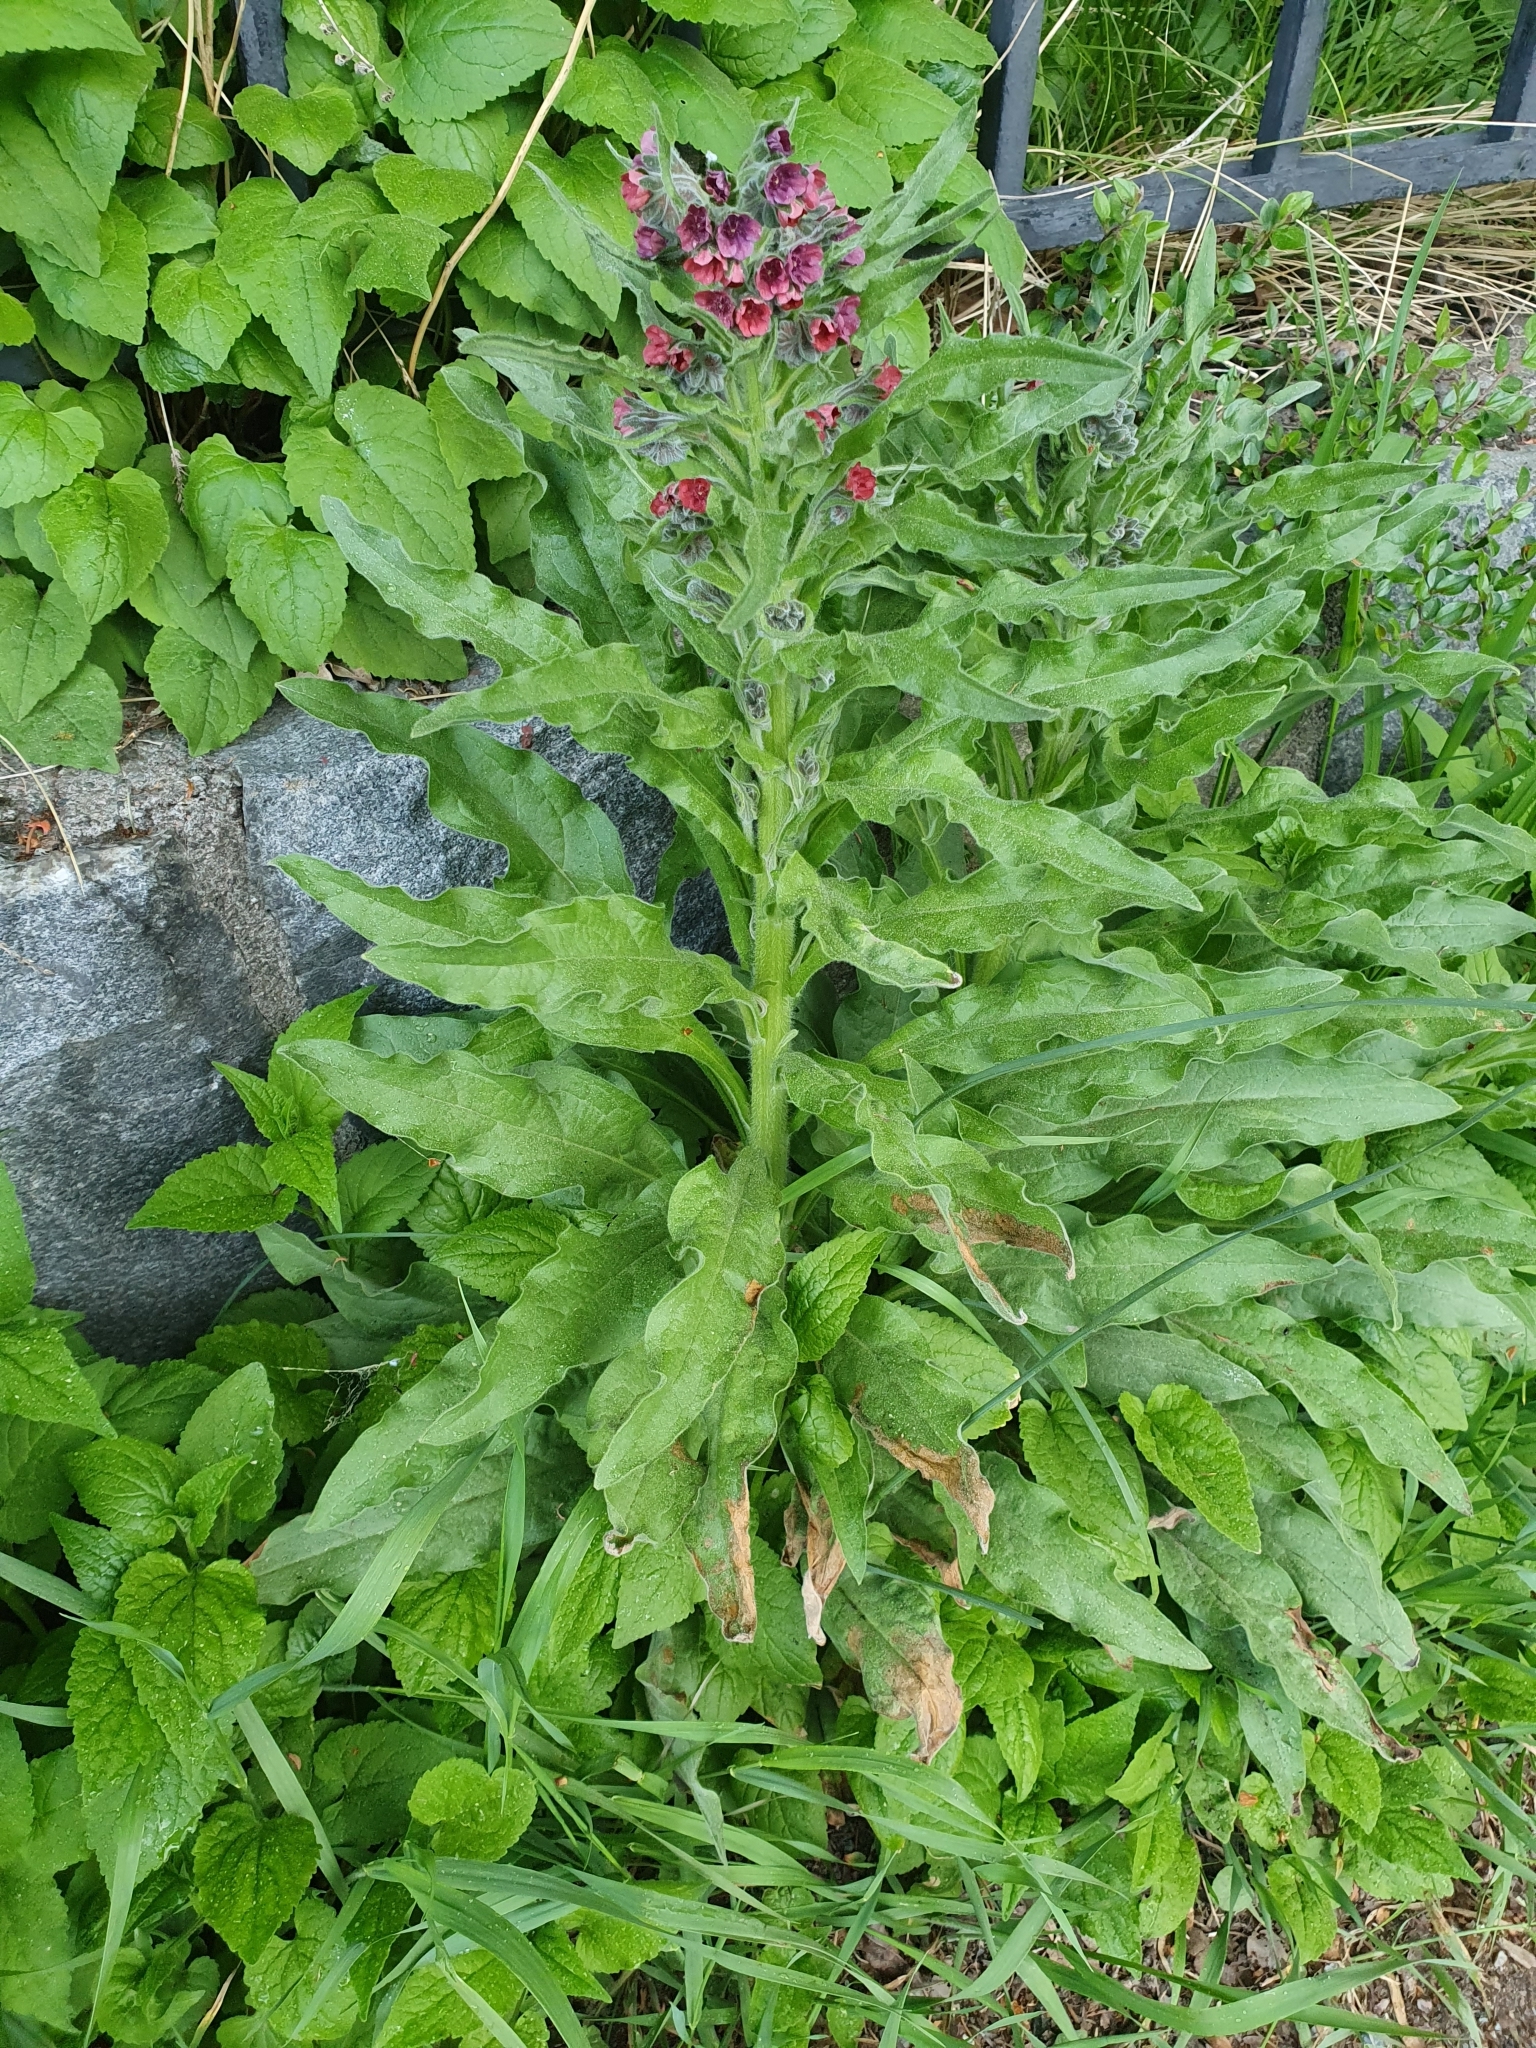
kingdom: Plantae
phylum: Tracheophyta
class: Magnoliopsida
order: Boraginales
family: Boraginaceae
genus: Cynoglossum
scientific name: Cynoglossum officinale
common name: Hound's-tongue
